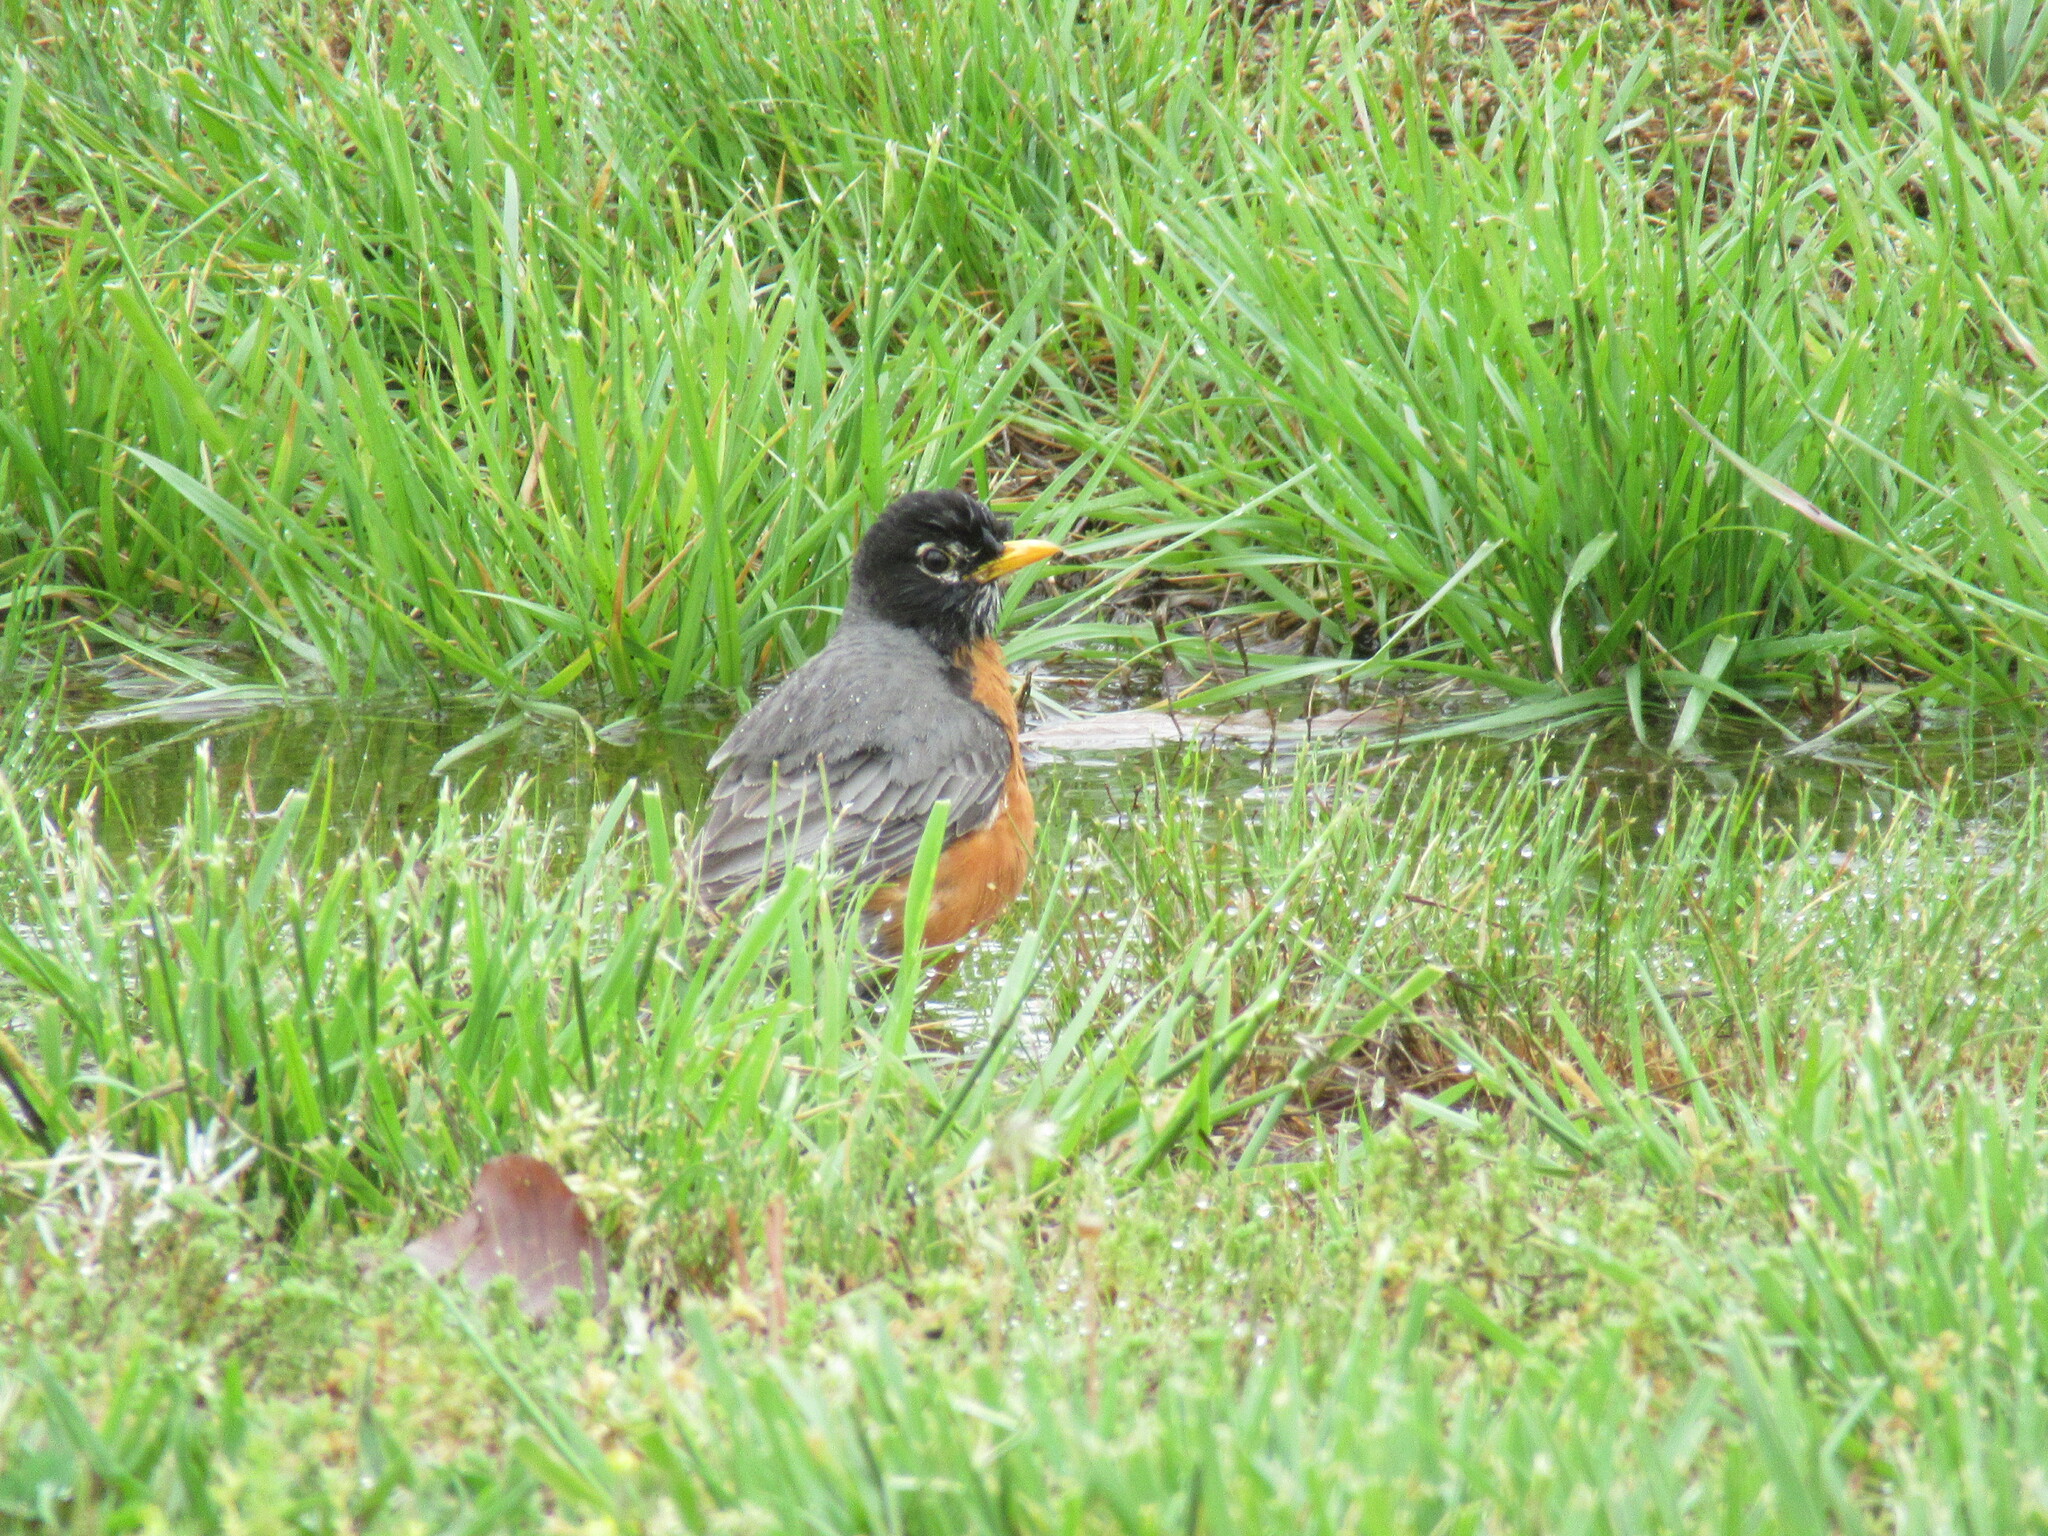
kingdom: Animalia
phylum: Chordata
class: Aves
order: Passeriformes
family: Turdidae
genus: Turdus
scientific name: Turdus migratorius
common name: American robin
